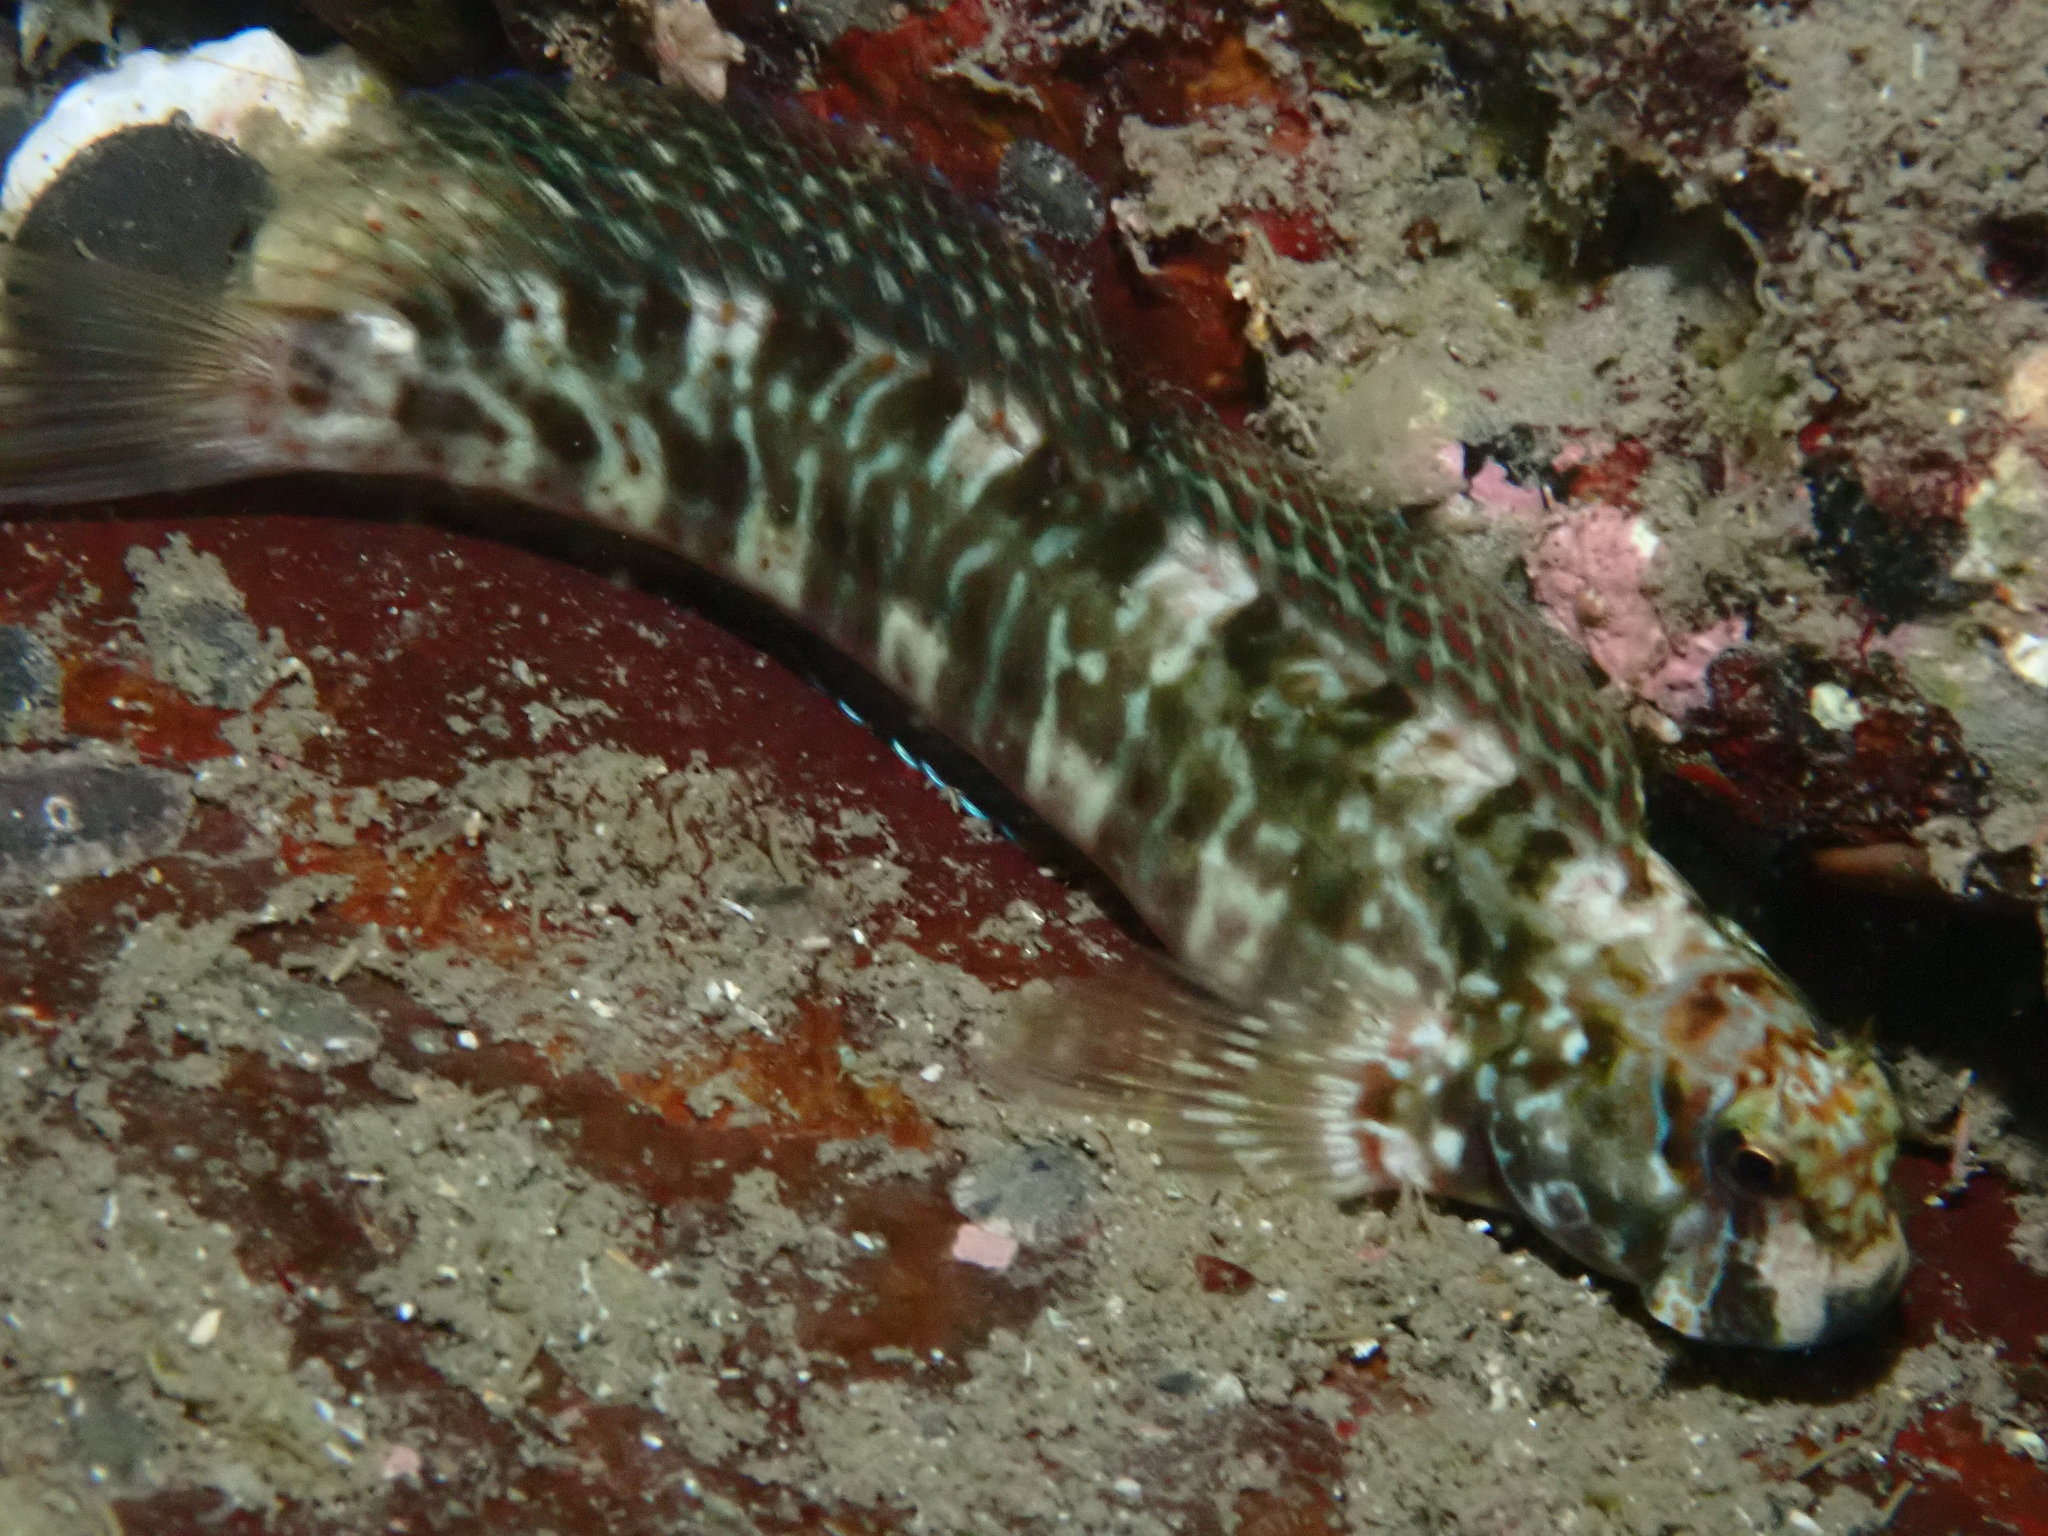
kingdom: Animalia
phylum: Chordata
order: Perciformes
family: Blenniidae
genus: Istiblennius
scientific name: Istiblennius edentulus
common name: Rippled rockskipper
